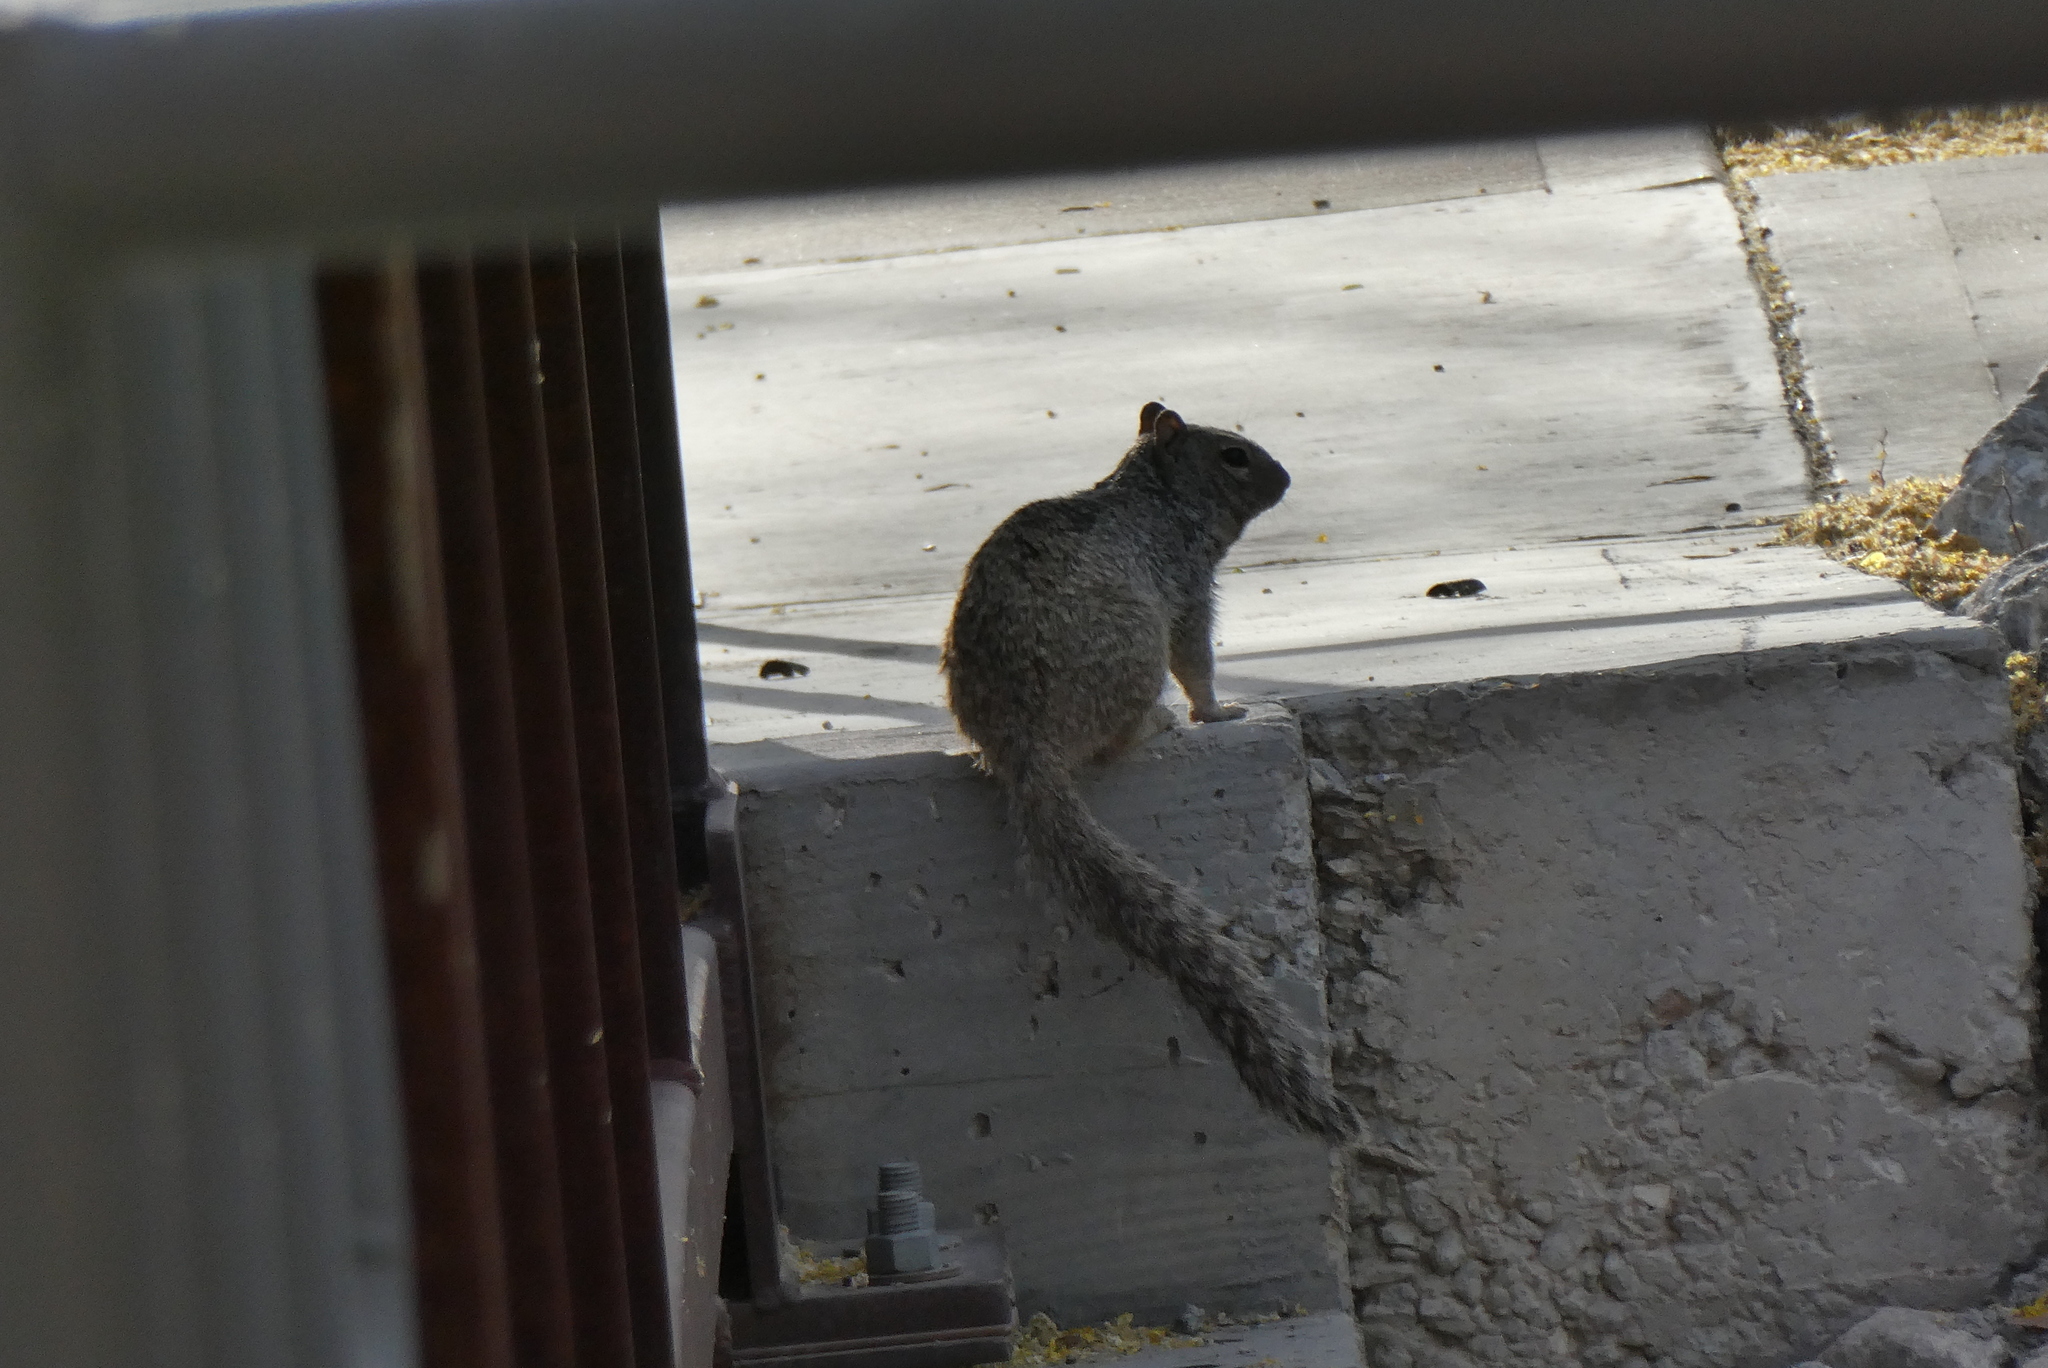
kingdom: Animalia
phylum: Chordata
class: Mammalia
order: Rodentia
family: Sciuridae
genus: Otospermophilus
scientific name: Otospermophilus variegatus
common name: Rock squirrel
